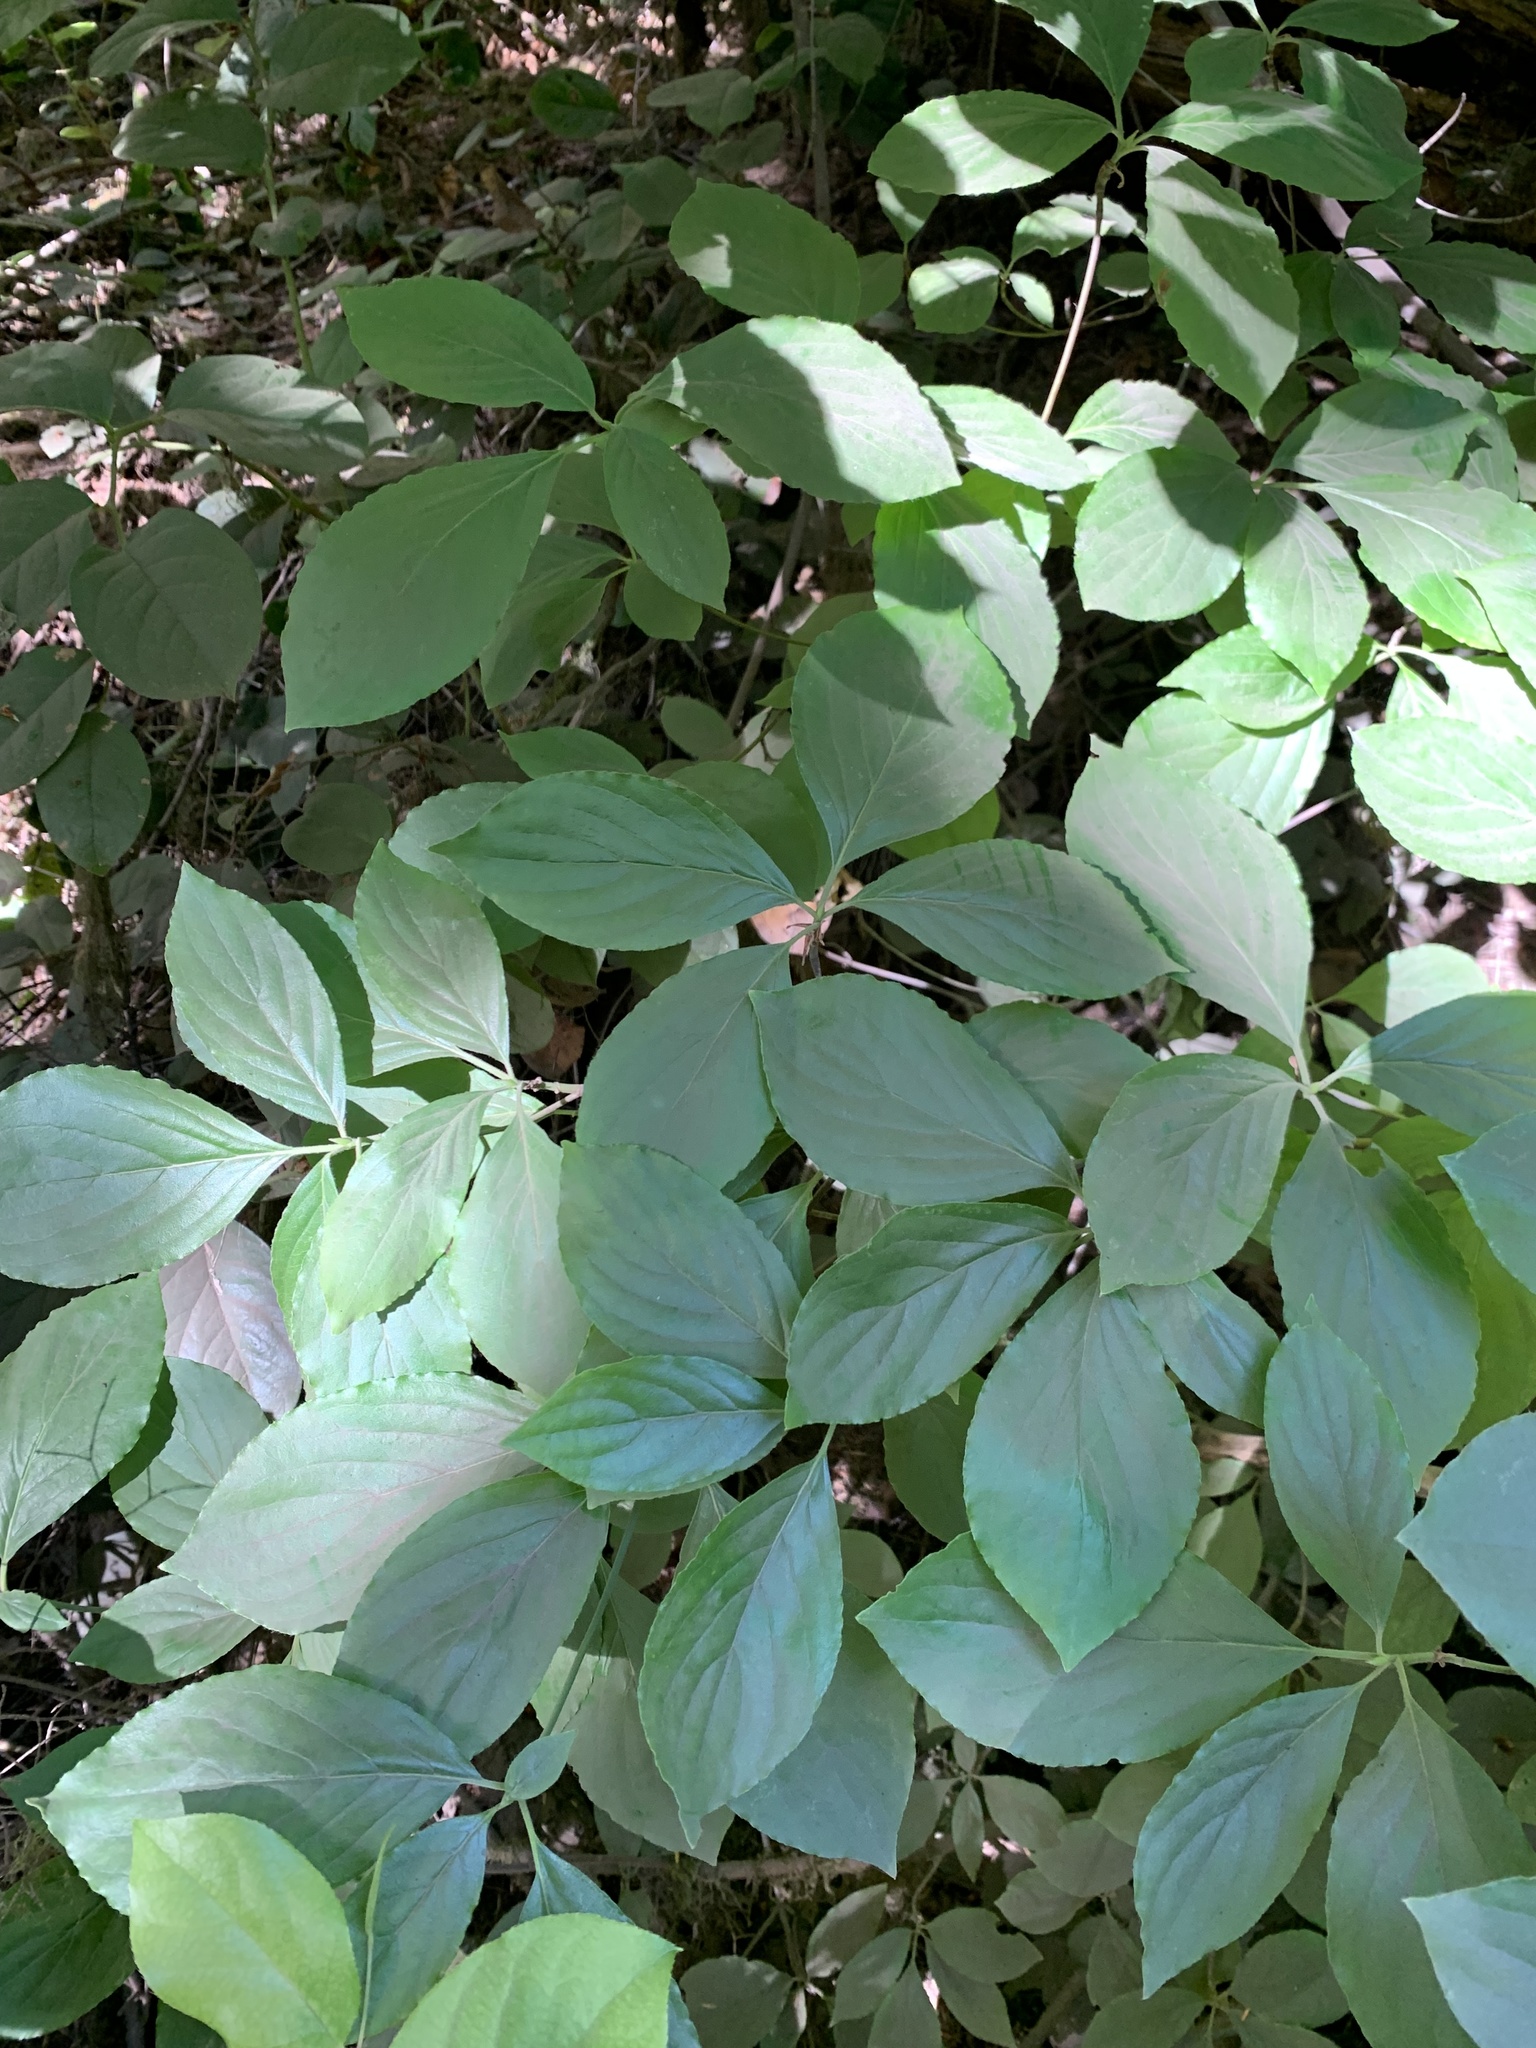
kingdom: Plantae
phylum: Tracheophyta
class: Magnoliopsida
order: Cornales
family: Cornaceae
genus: Cornus
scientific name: Cornus nuttallii
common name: Pacific dogwood
